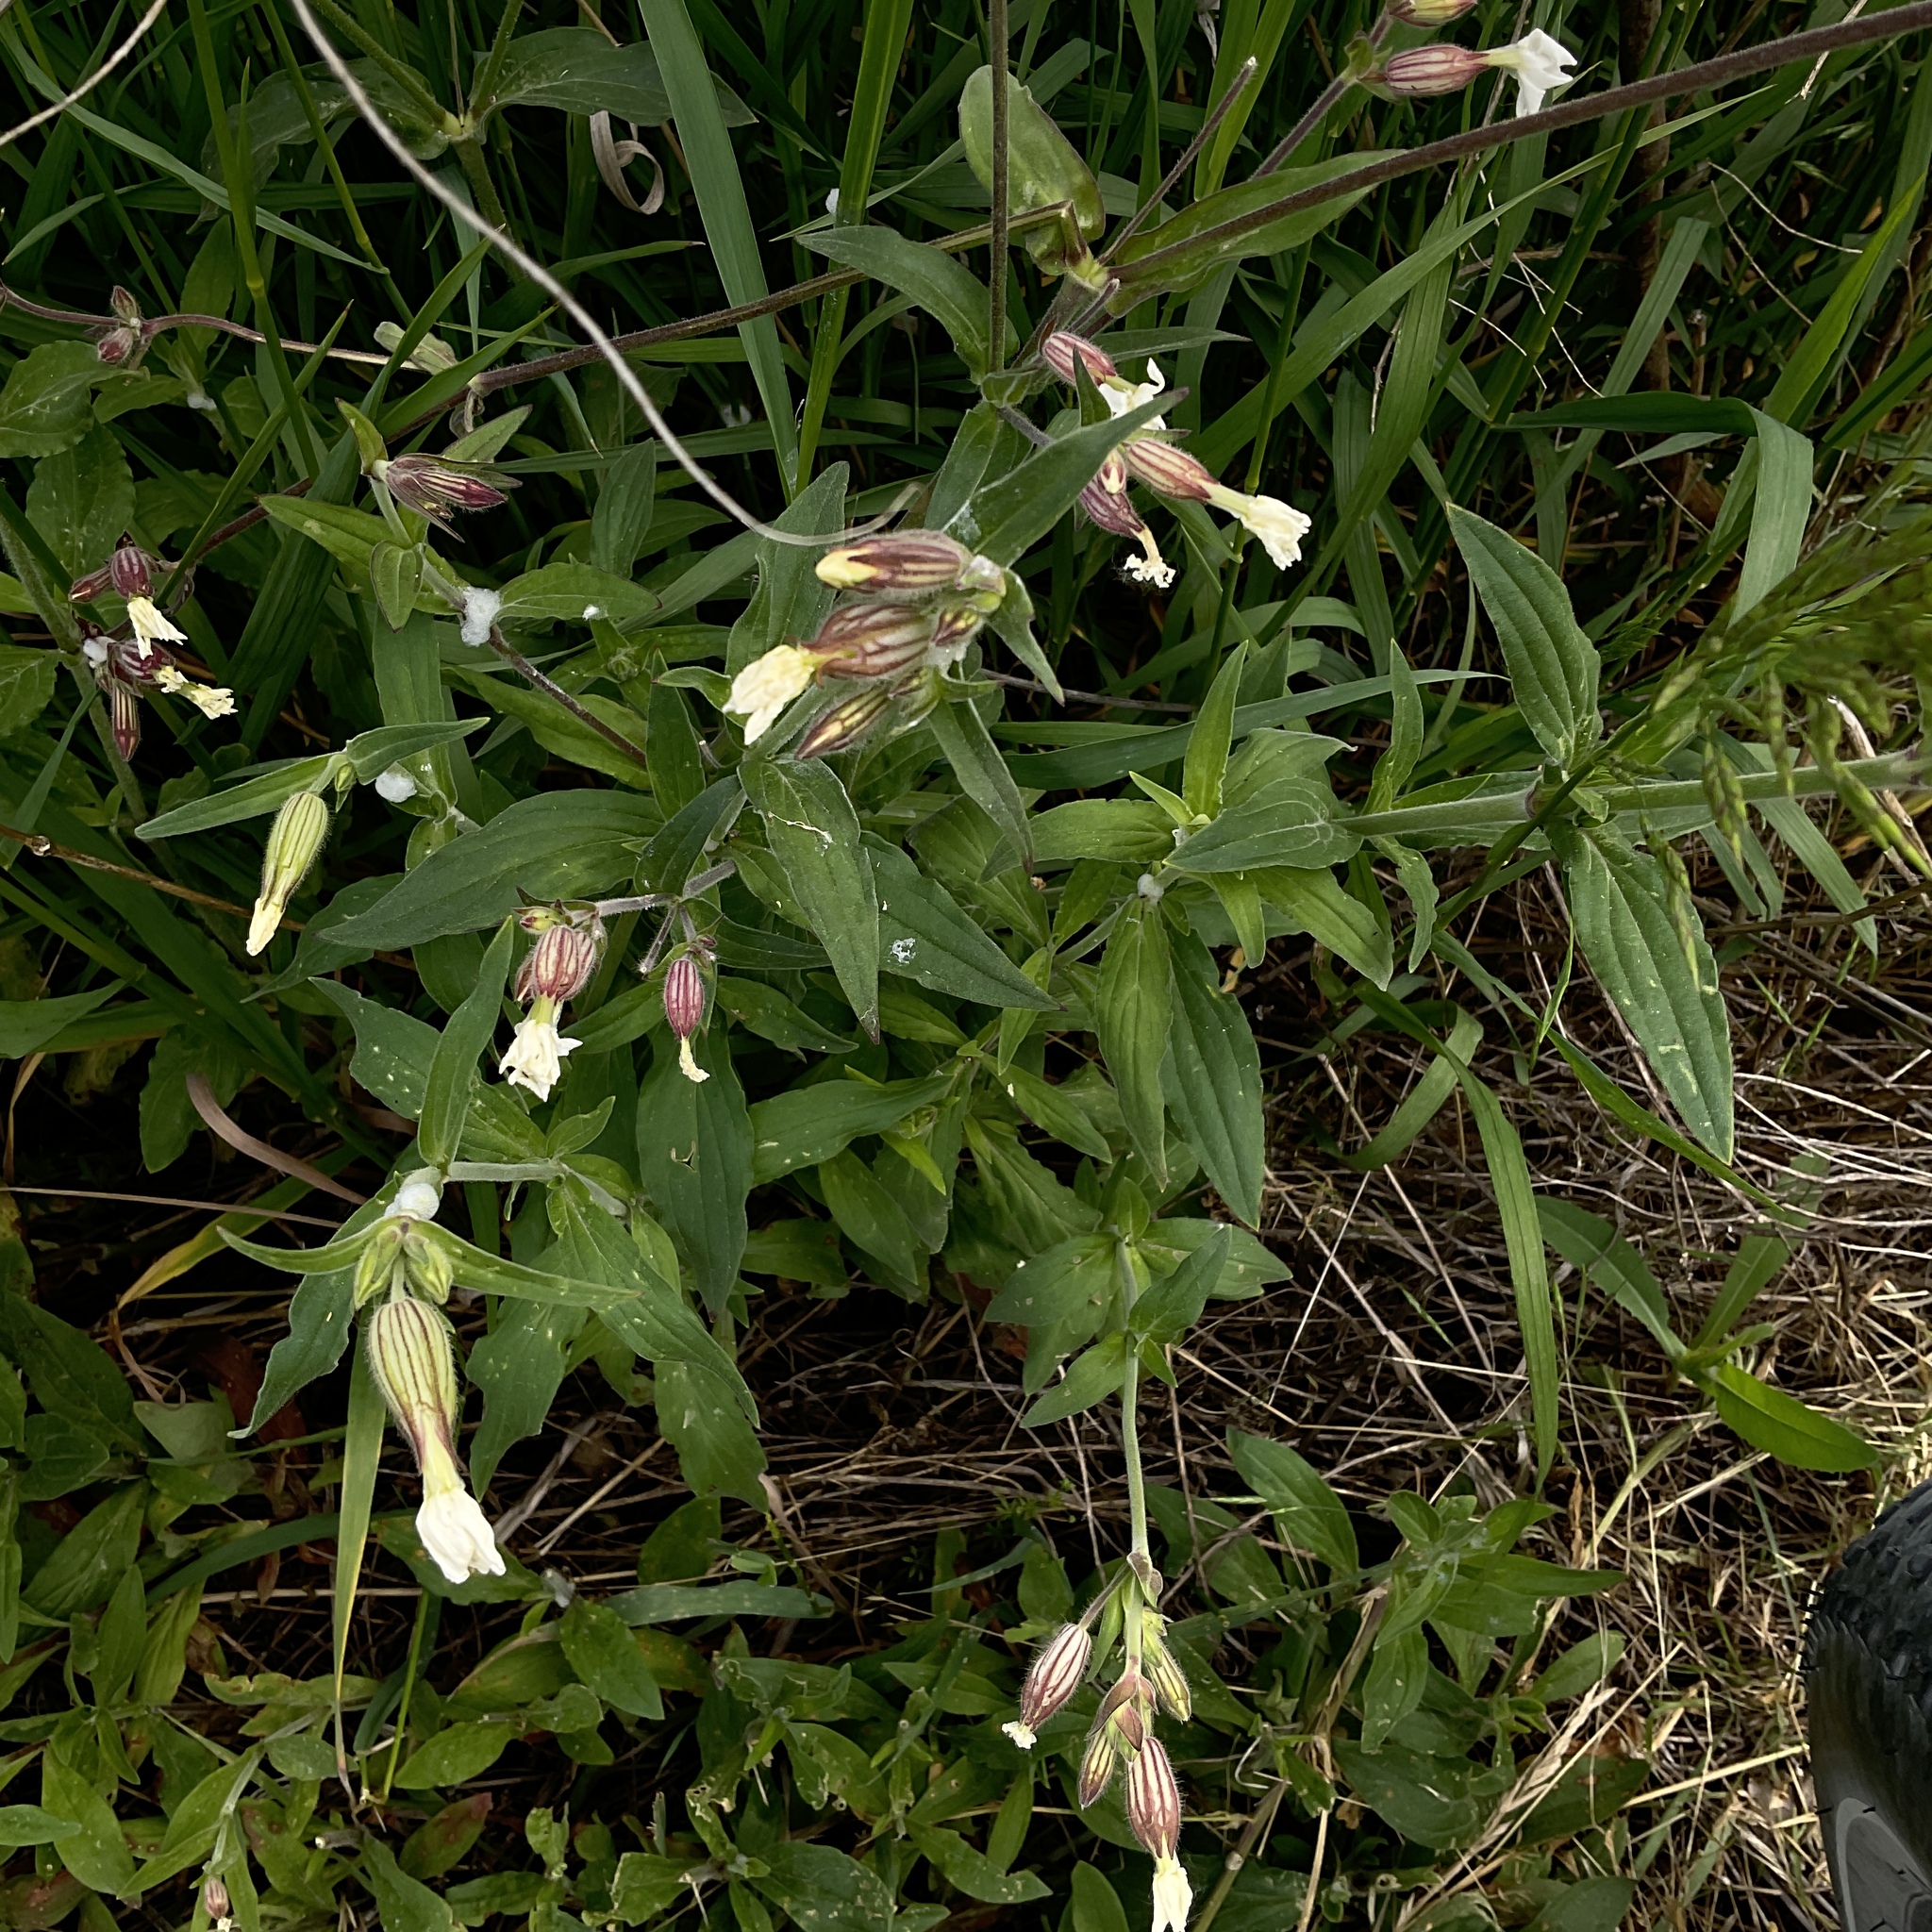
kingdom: Plantae
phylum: Tracheophyta
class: Magnoliopsida
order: Caryophyllales
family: Caryophyllaceae
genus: Silene
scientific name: Silene latifolia
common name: White campion
